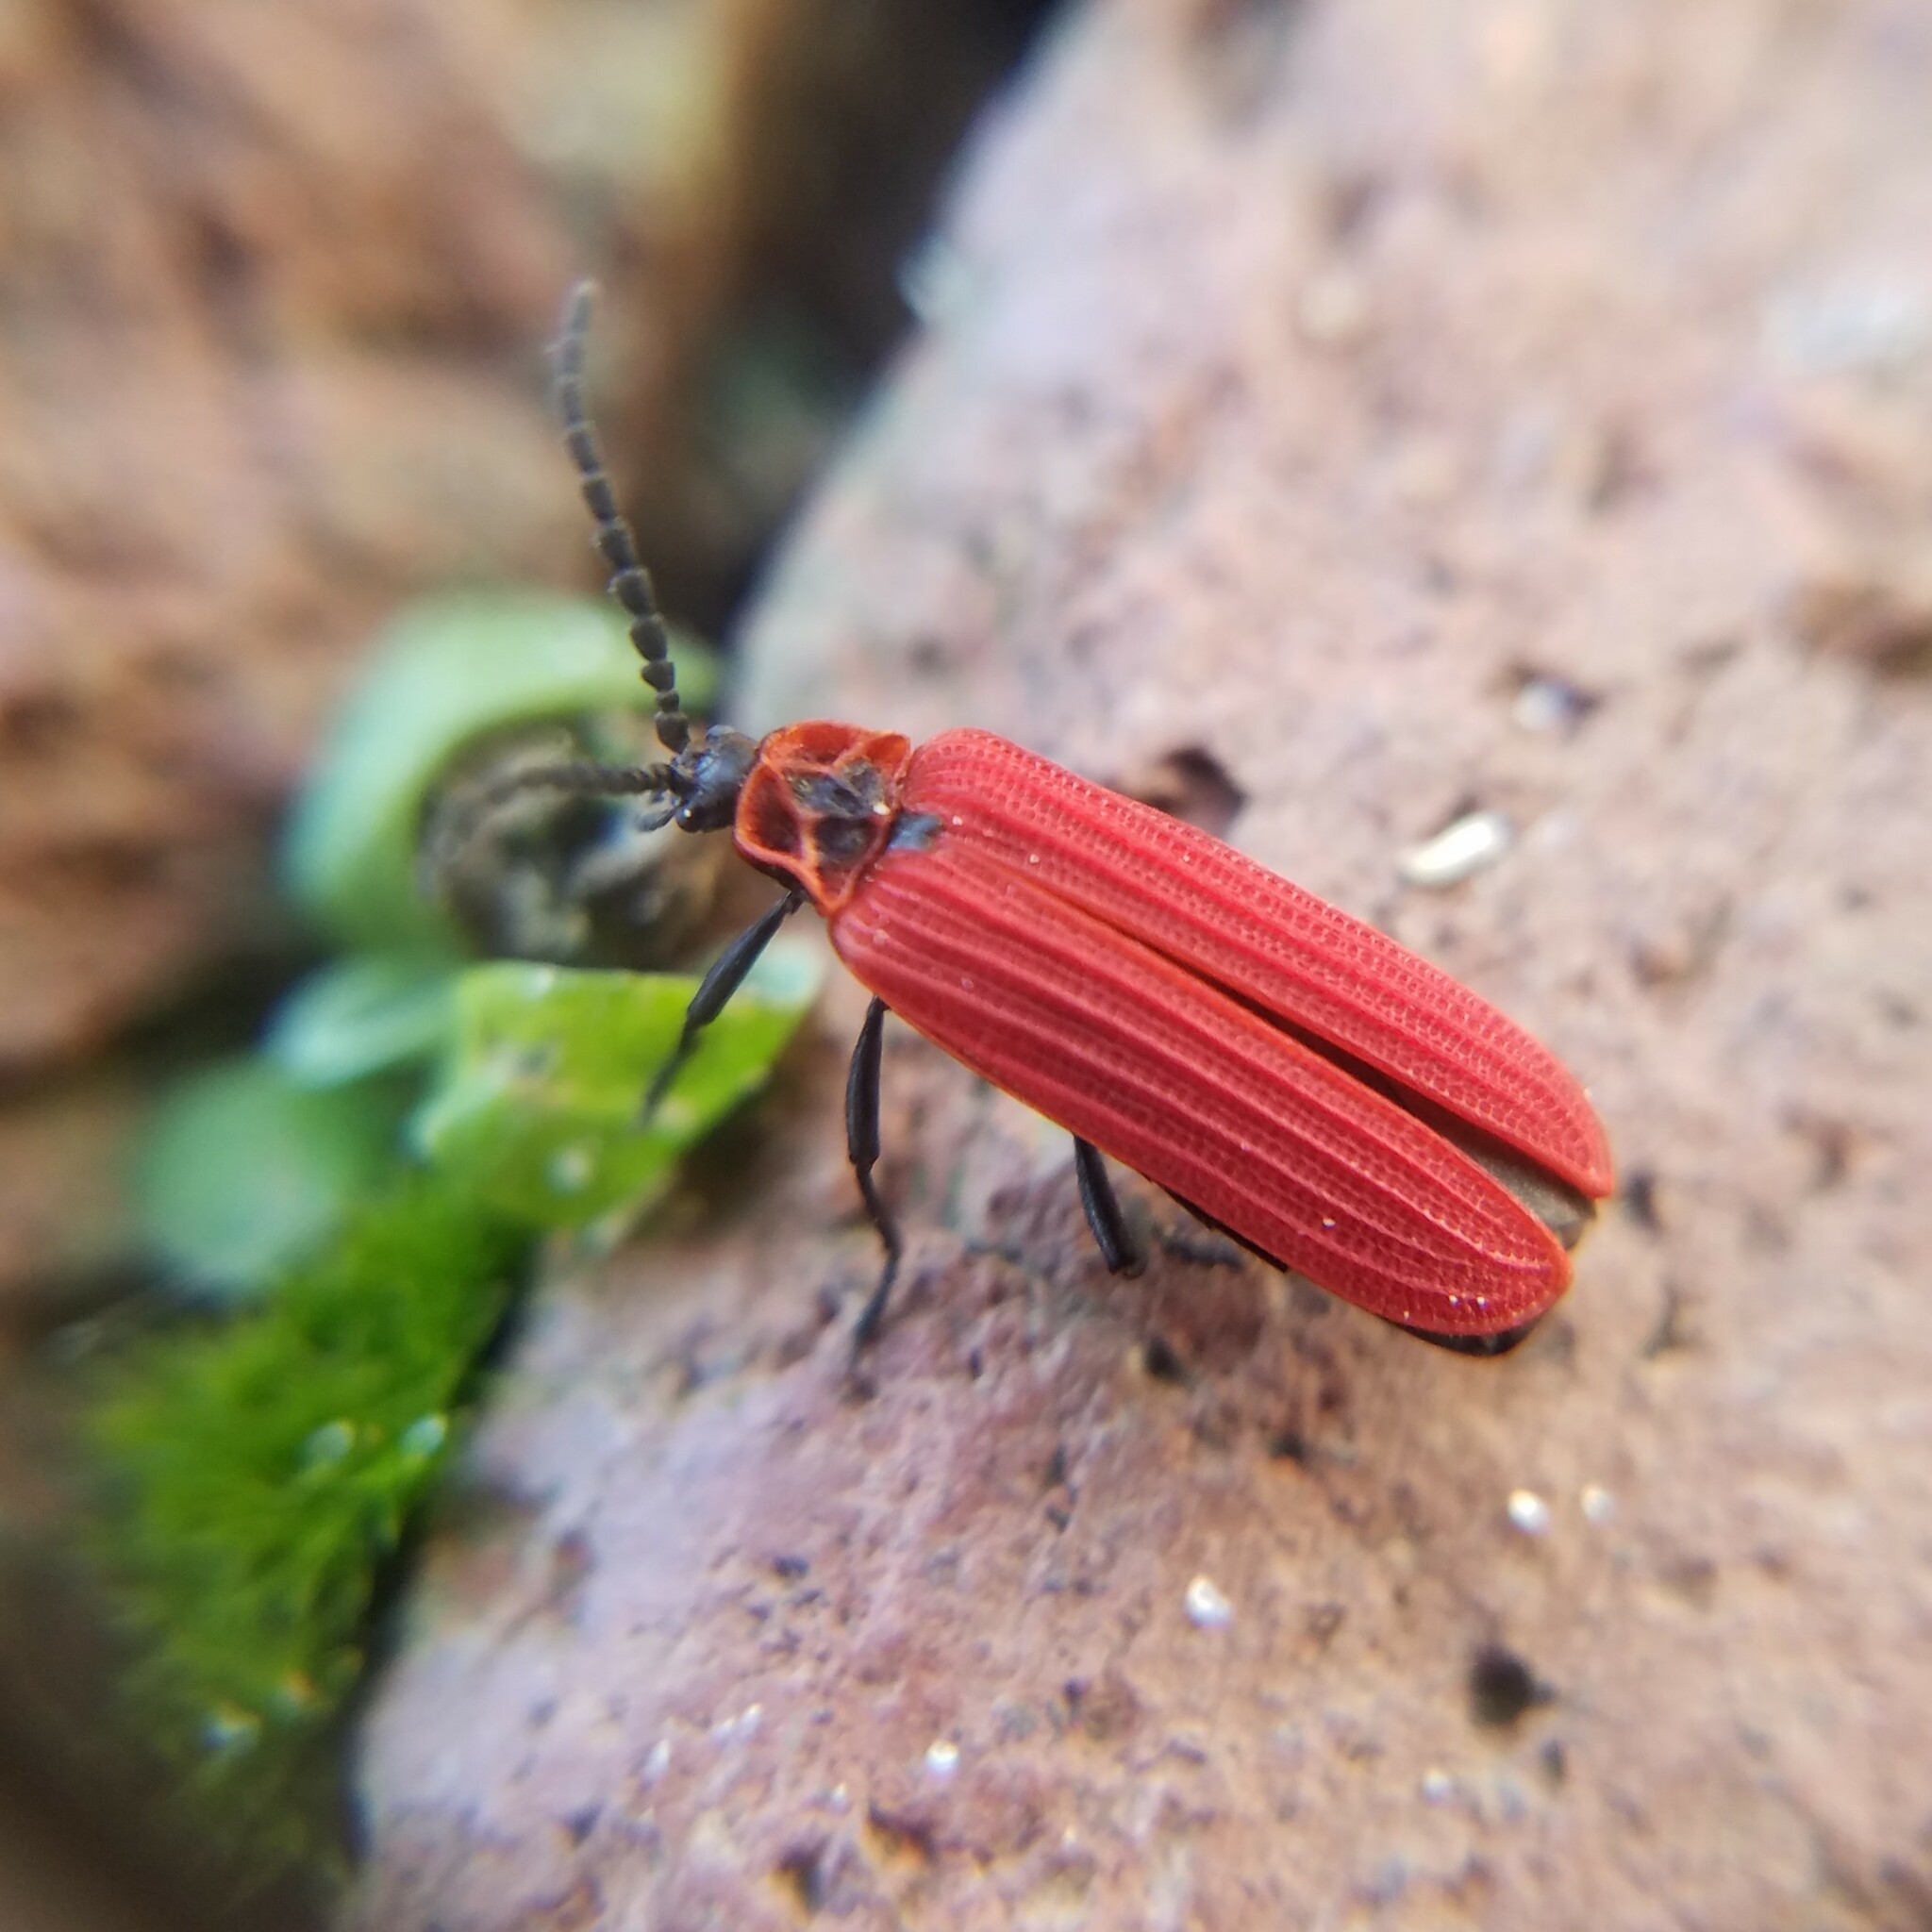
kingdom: Animalia
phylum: Arthropoda
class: Insecta
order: Coleoptera
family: Lycidae
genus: Dictyoptera
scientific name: Dictyoptera aurora
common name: Golden net-winged beetle
